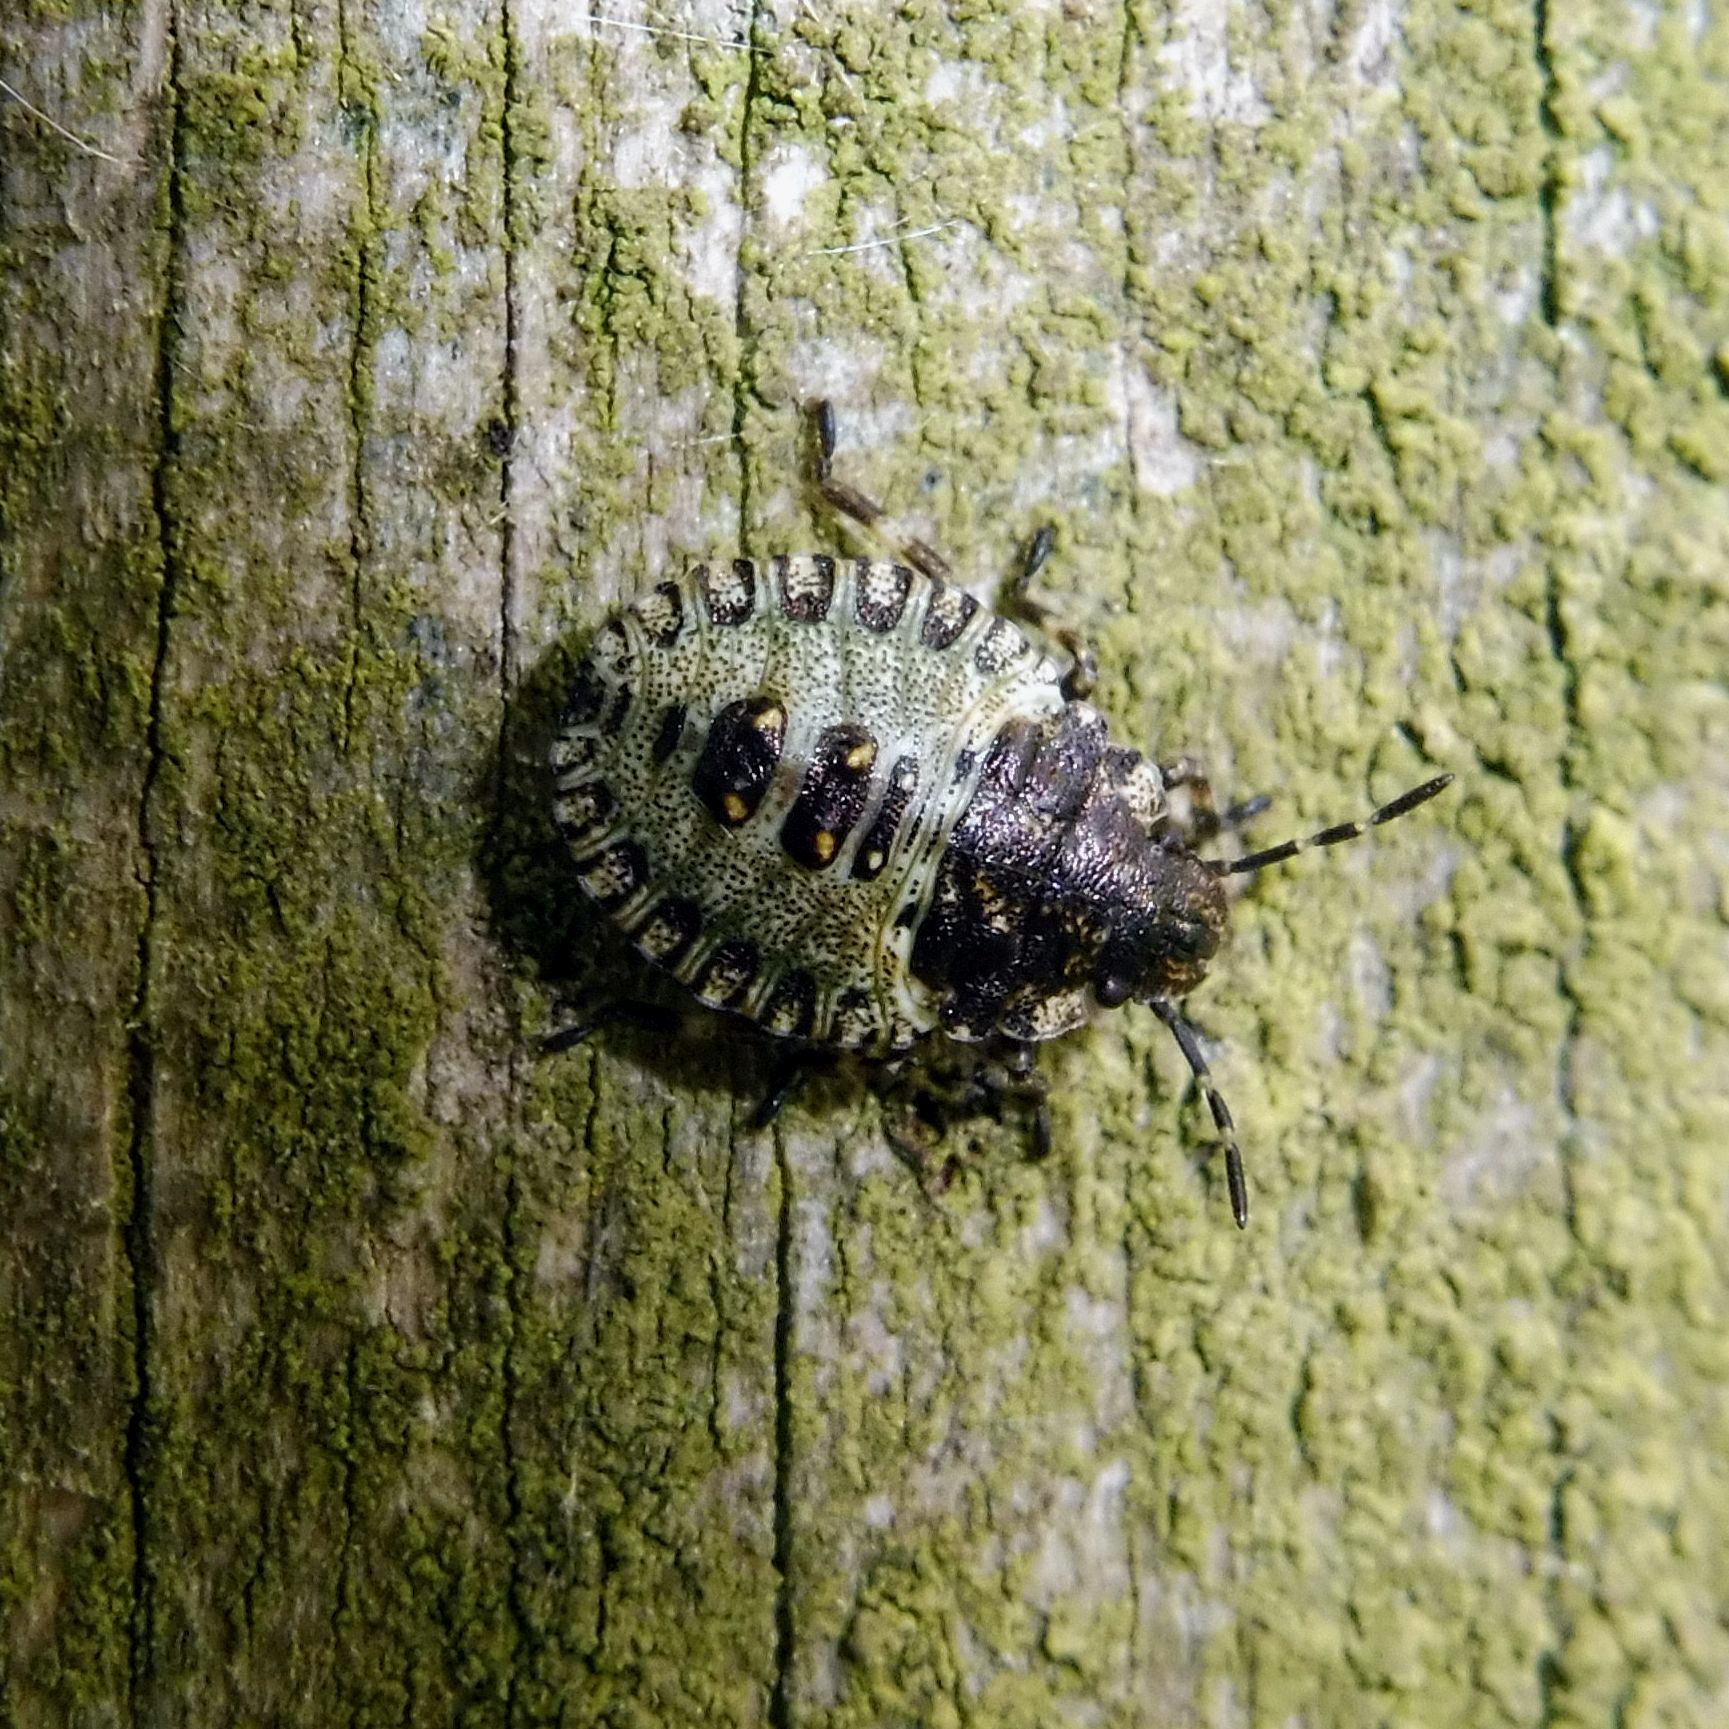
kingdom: Animalia
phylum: Arthropoda
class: Insecta
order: Hemiptera
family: Pentatomidae
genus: Pentatoma
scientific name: Pentatoma rufipes
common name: Forest bug
